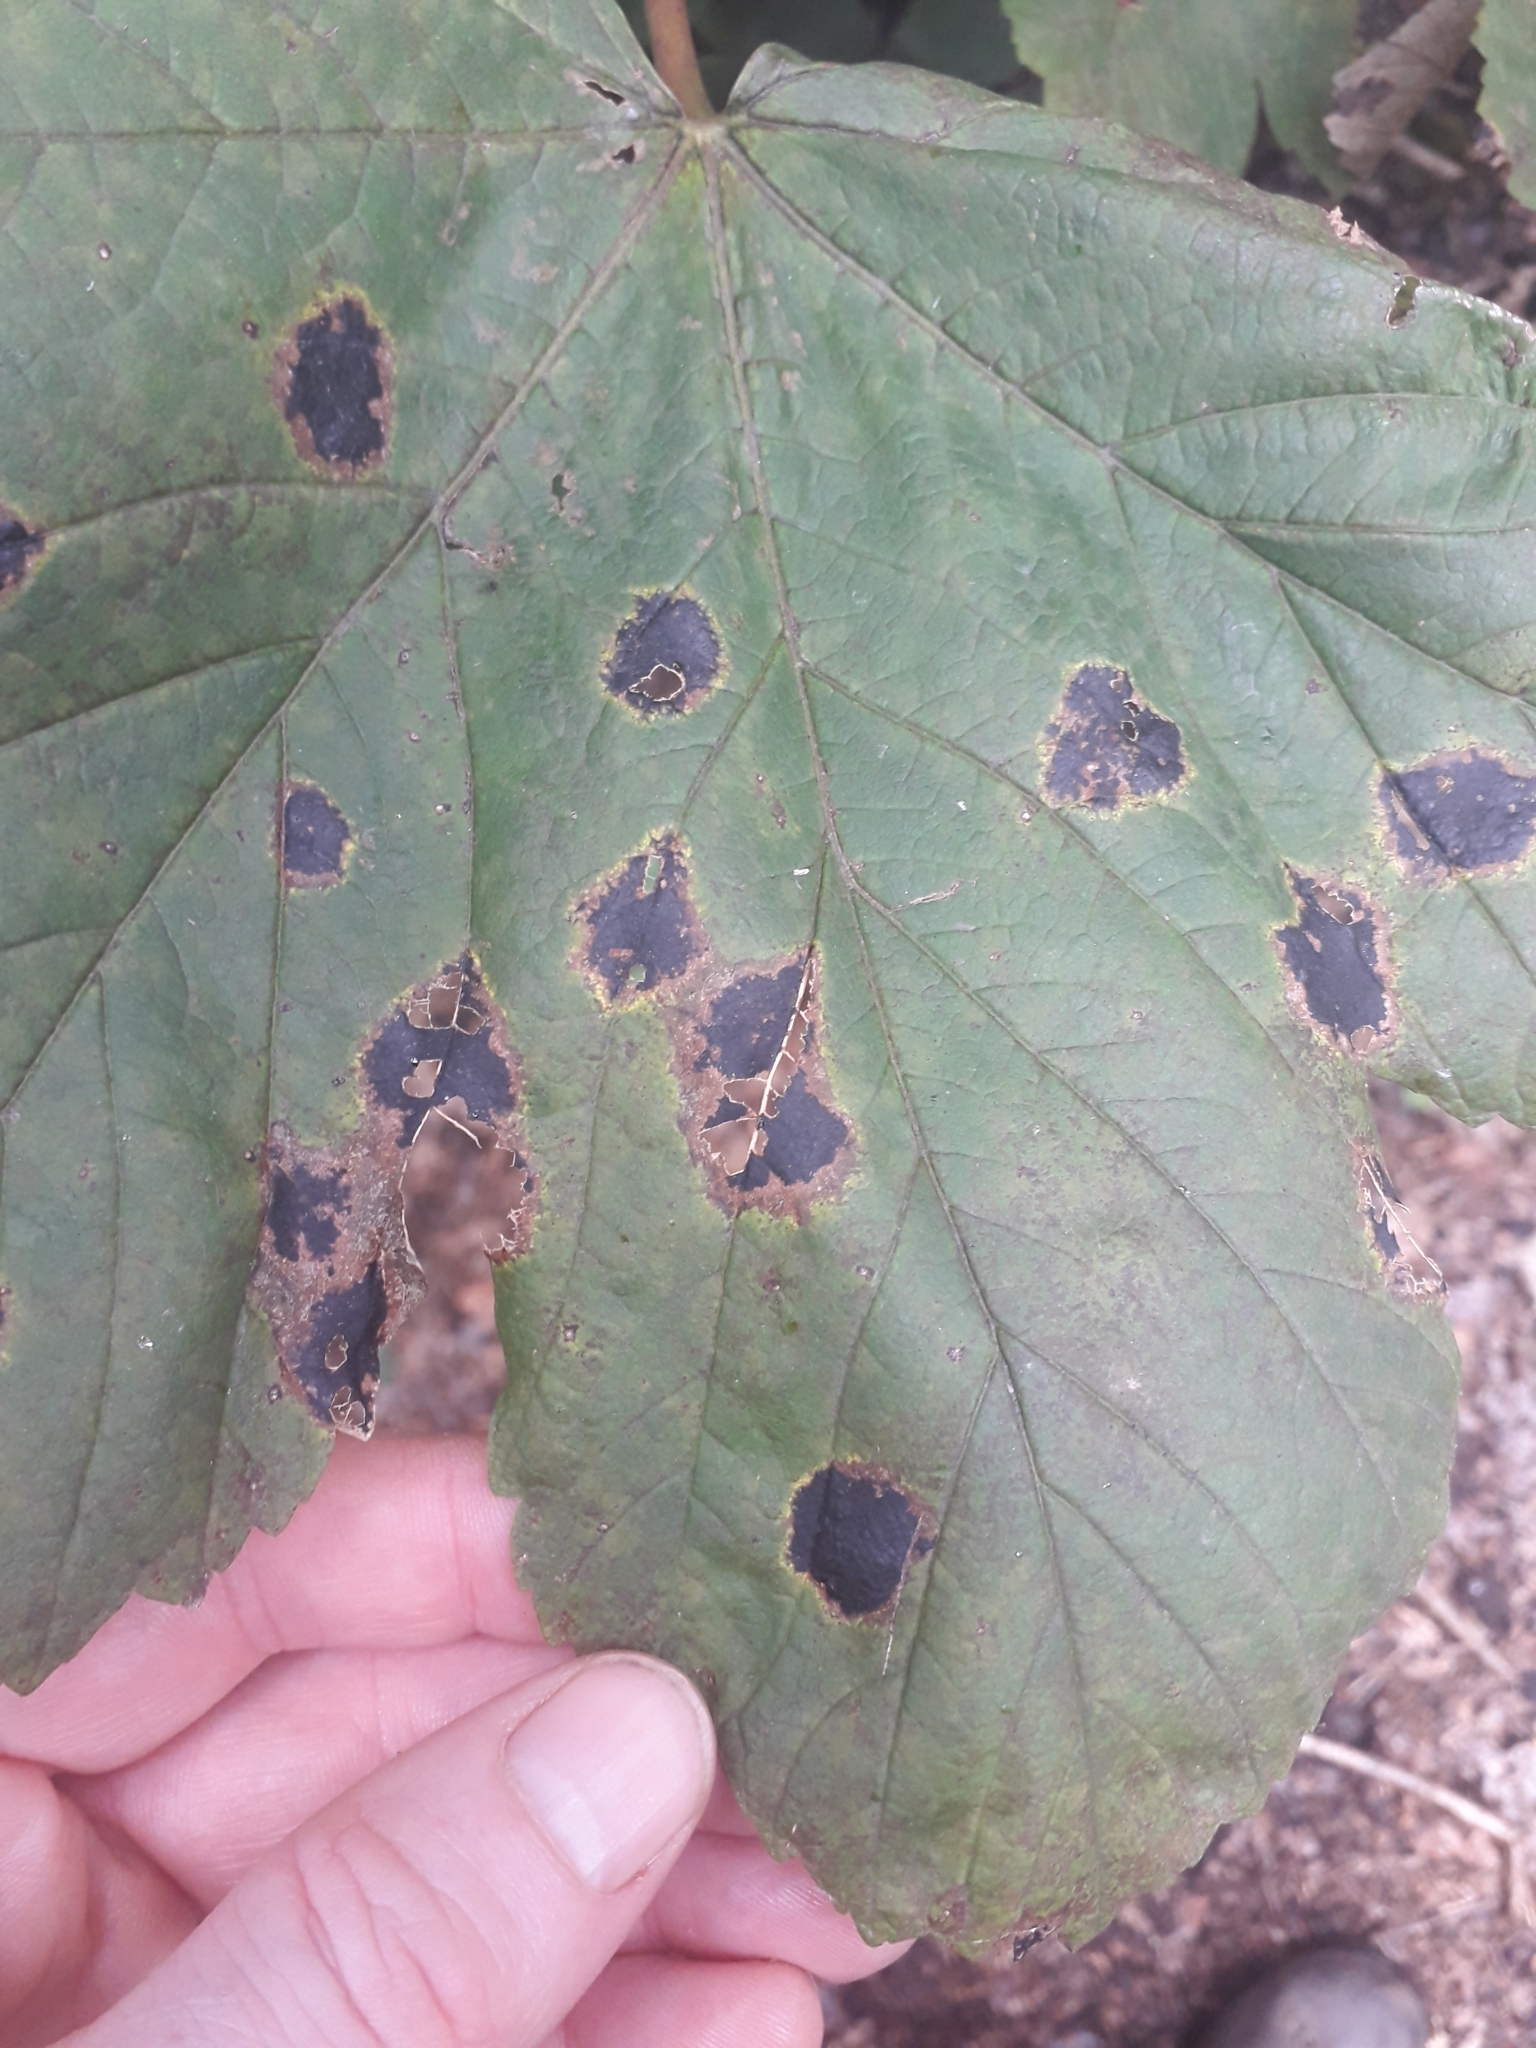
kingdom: Fungi
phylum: Ascomycota
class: Leotiomycetes
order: Rhytismatales
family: Rhytismataceae
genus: Rhytisma
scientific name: Rhytisma acerinum
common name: European tar spot
